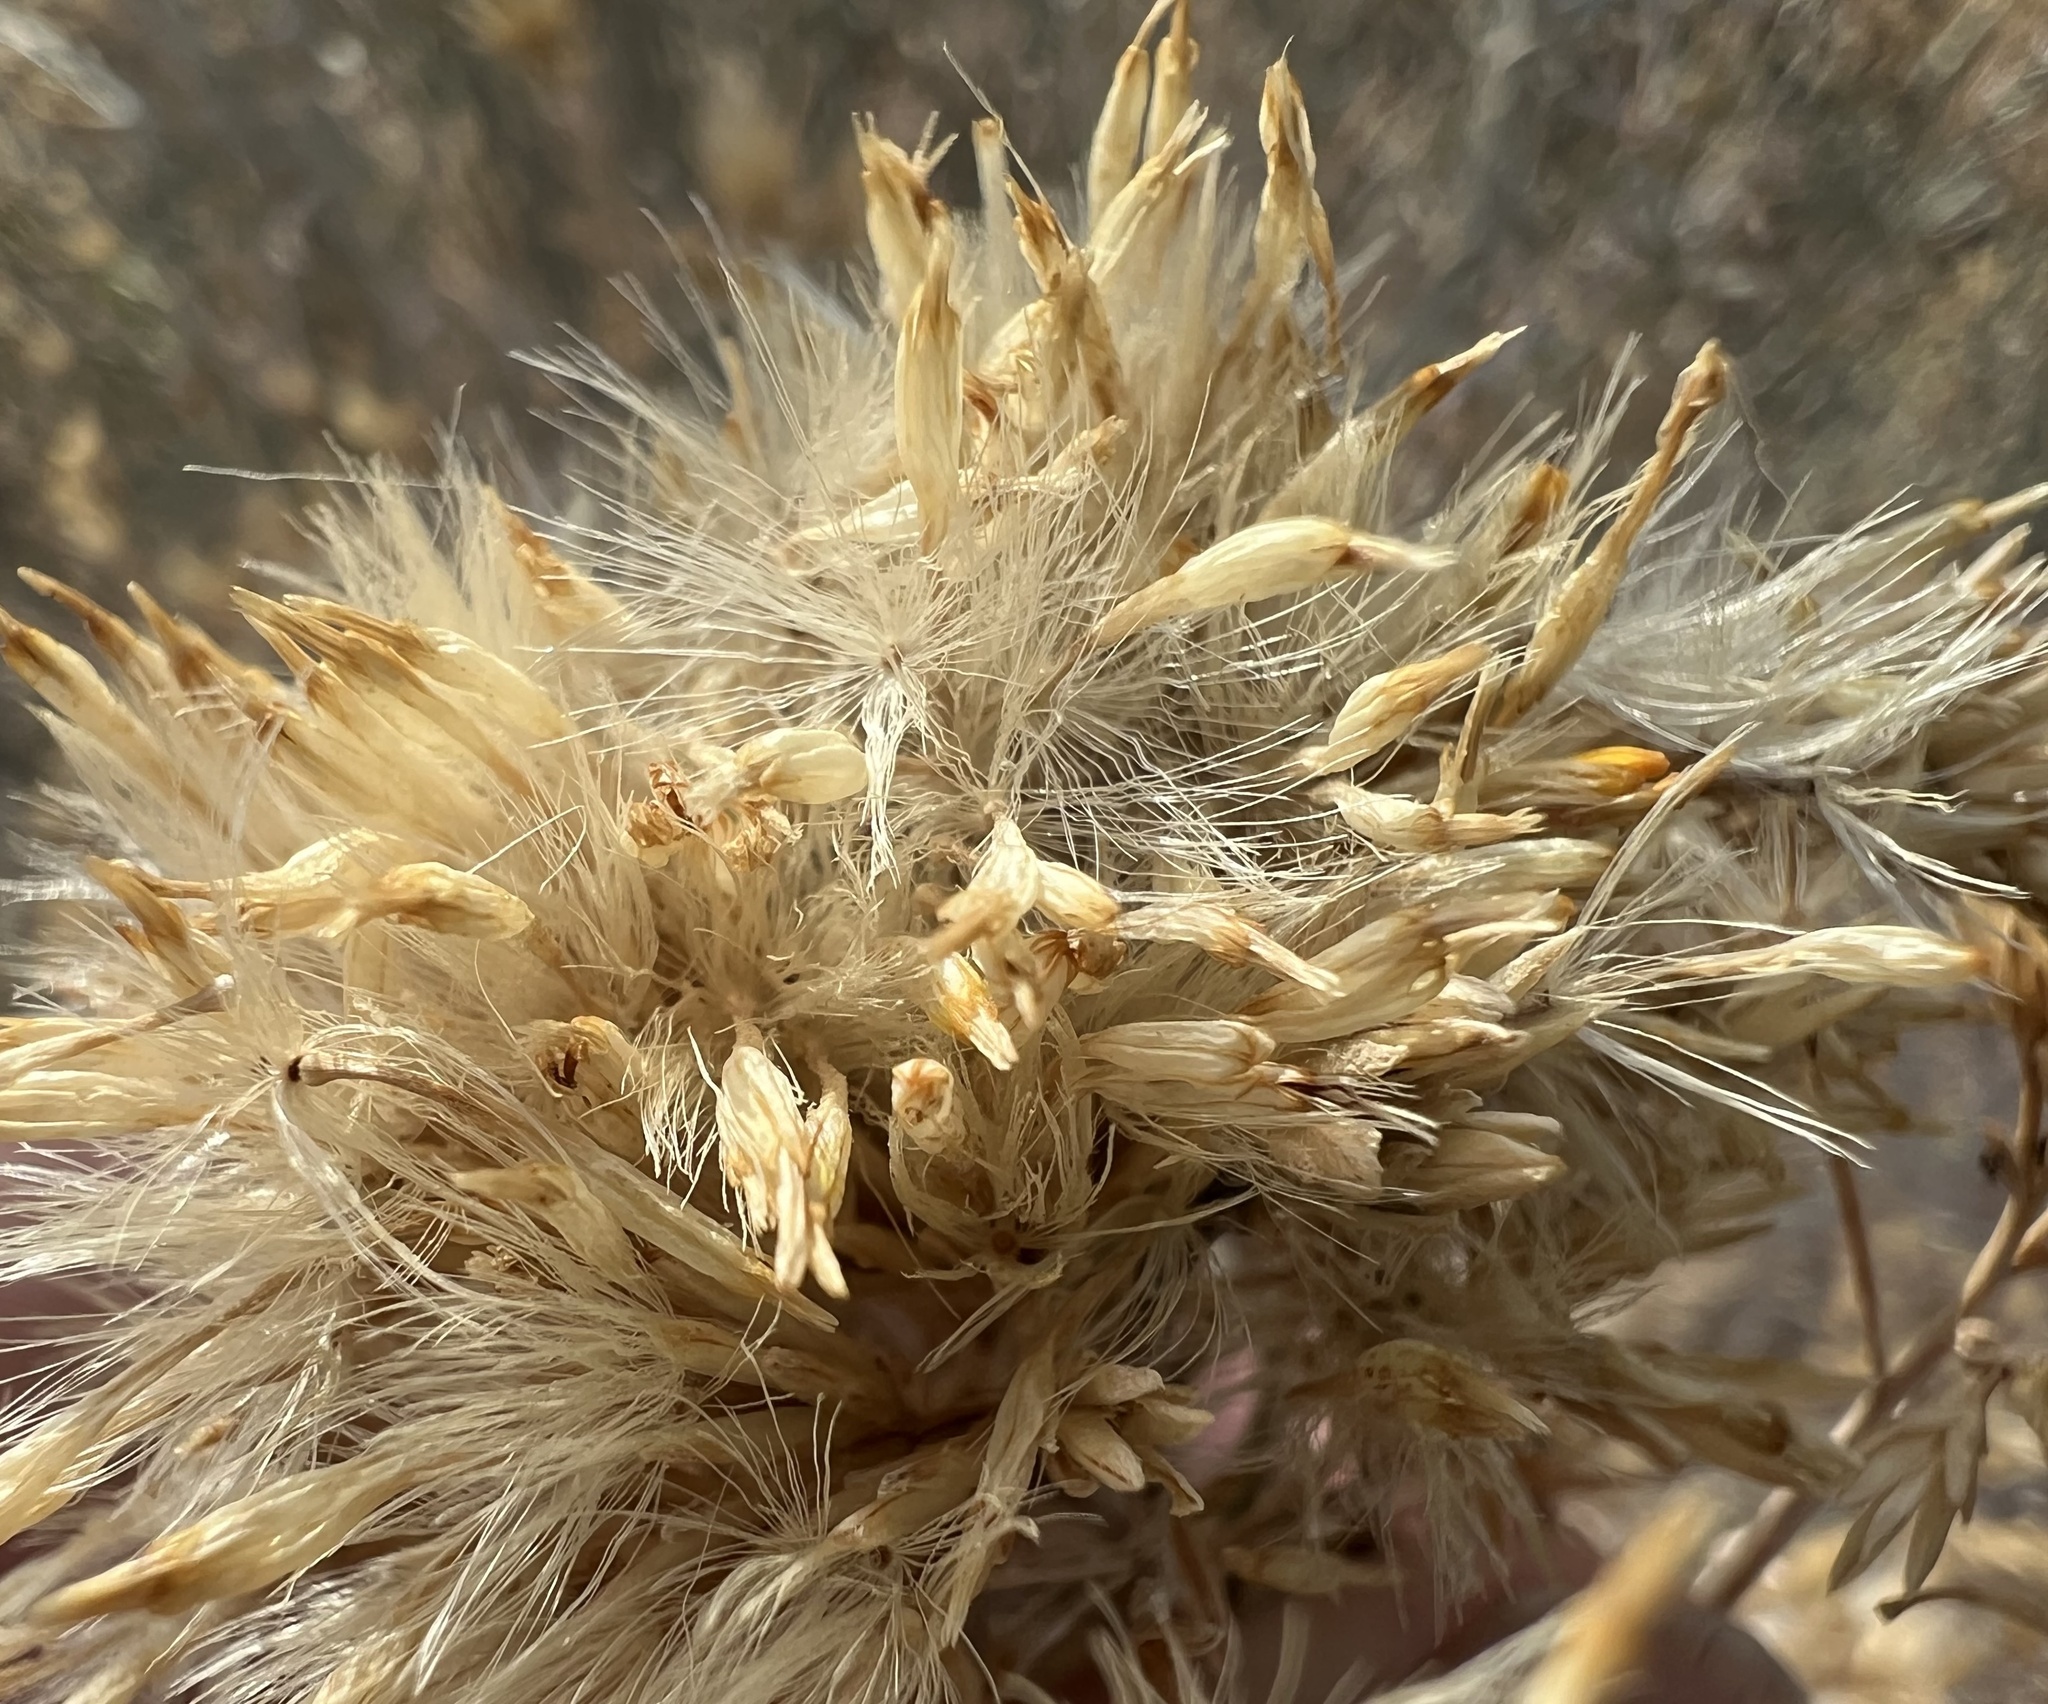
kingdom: Plantae
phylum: Tracheophyta
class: Magnoliopsida
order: Asterales
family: Asteraceae
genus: Ericameria
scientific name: Ericameria nauseosa
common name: Rubber rabbitbrush
